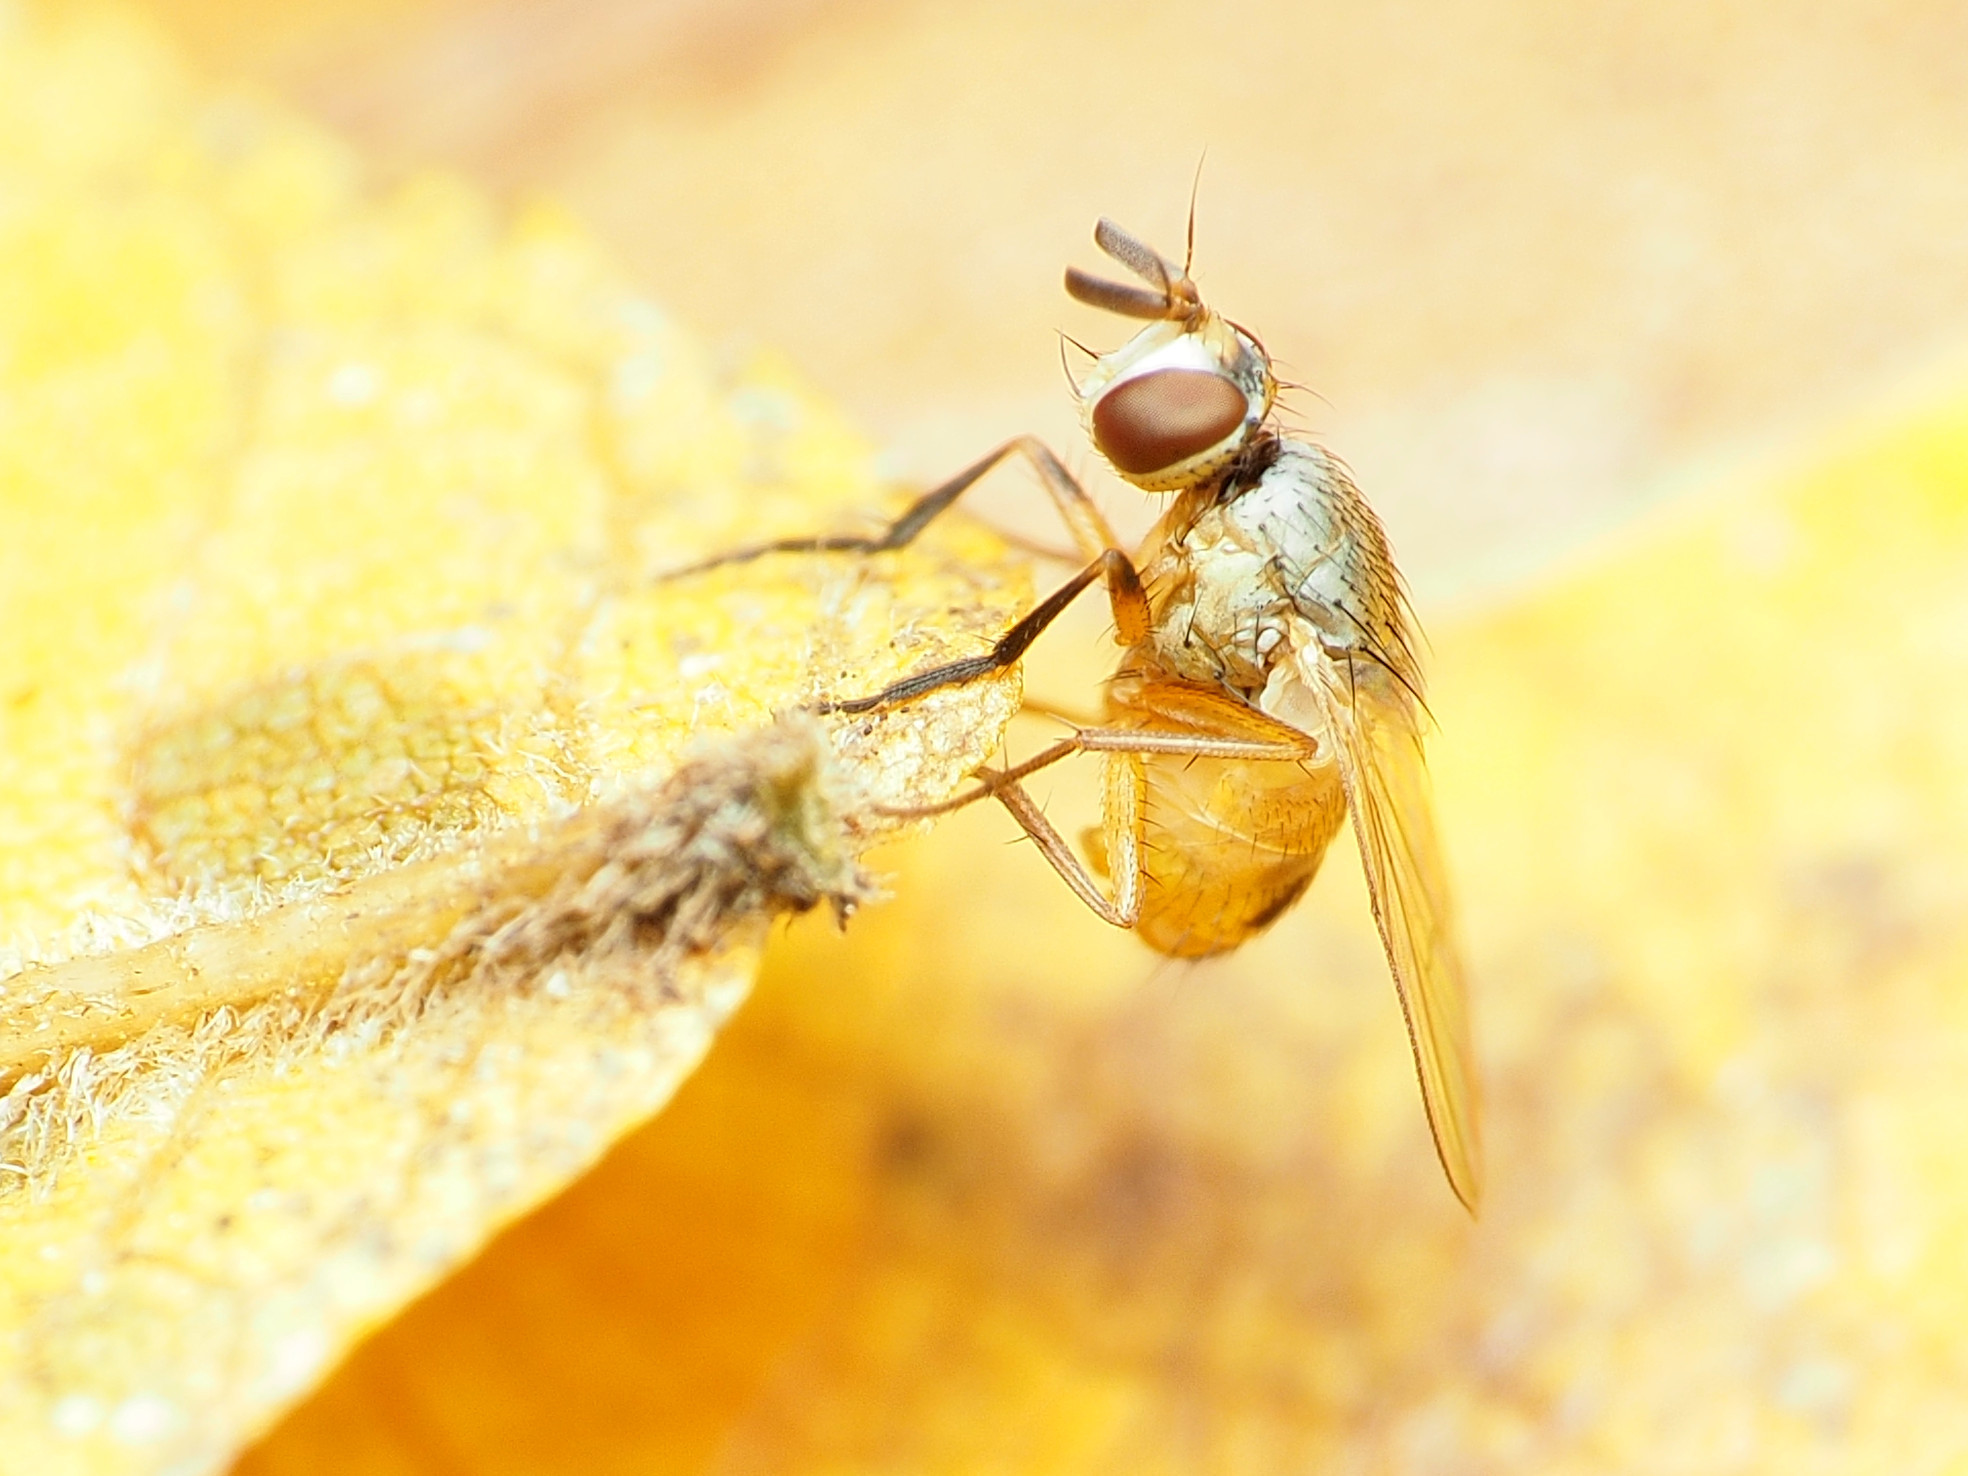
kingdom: Animalia
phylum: Arthropoda
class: Insecta
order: Diptera
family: Muscidae
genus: Atherigona
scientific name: Atherigona reversura
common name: Bermudagrass stem maggot
